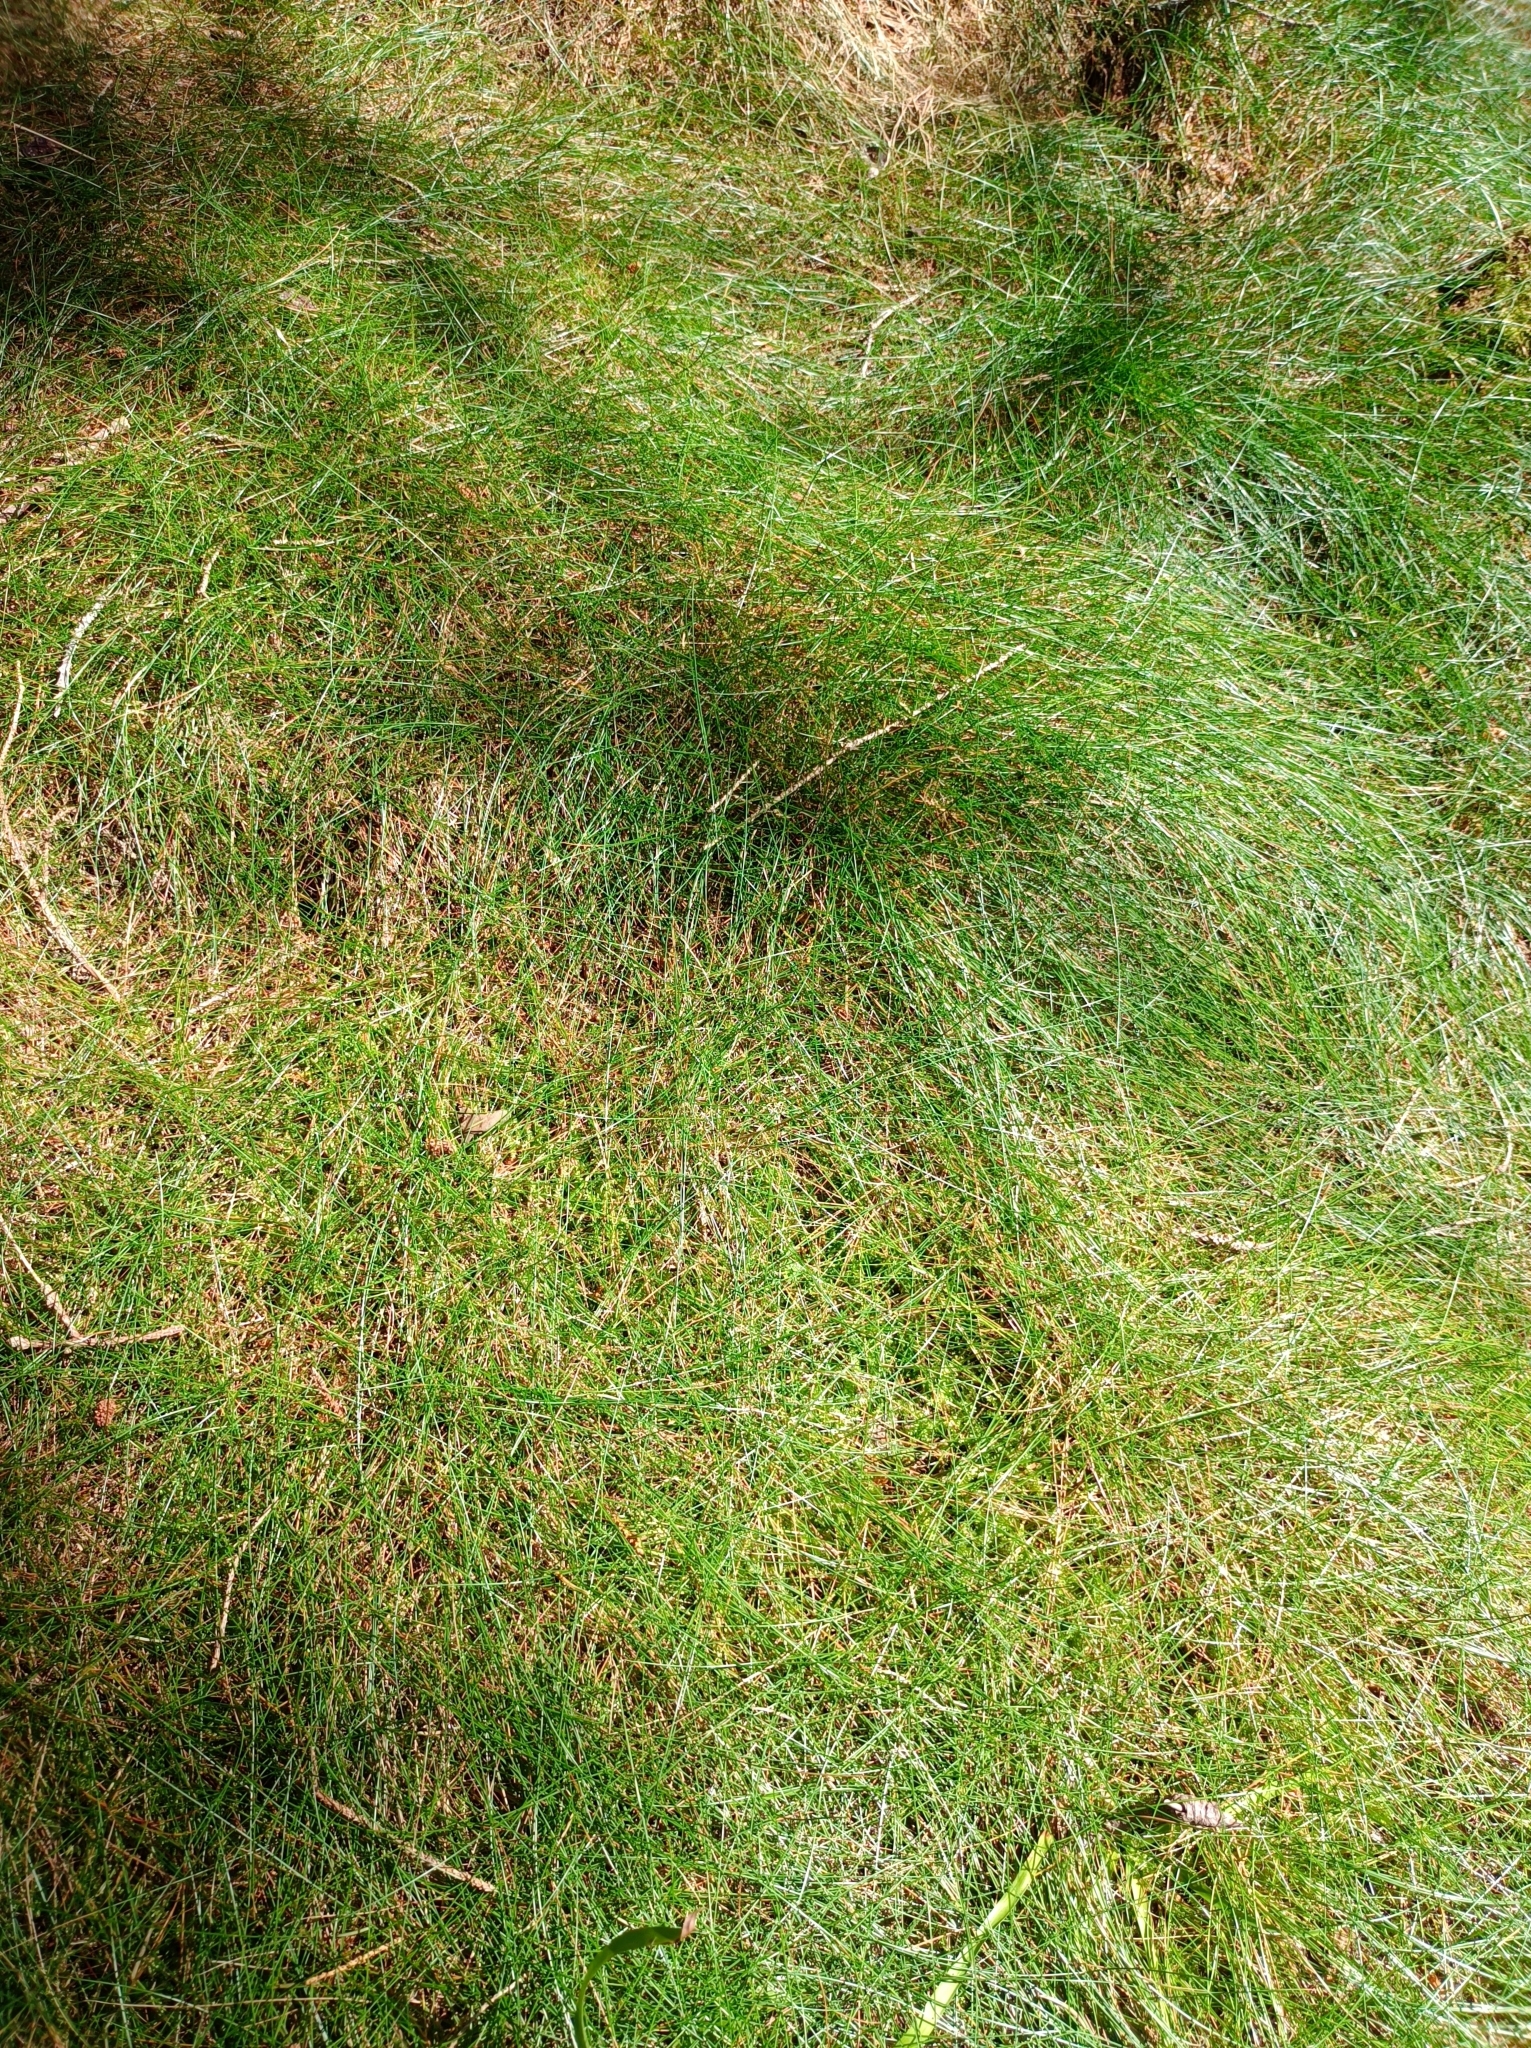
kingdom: Plantae
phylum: Tracheophyta
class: Liliopsida
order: Poales
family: Poaceae
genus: Avenella
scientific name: Avenella flexuosa
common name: Wavy hairgrass
